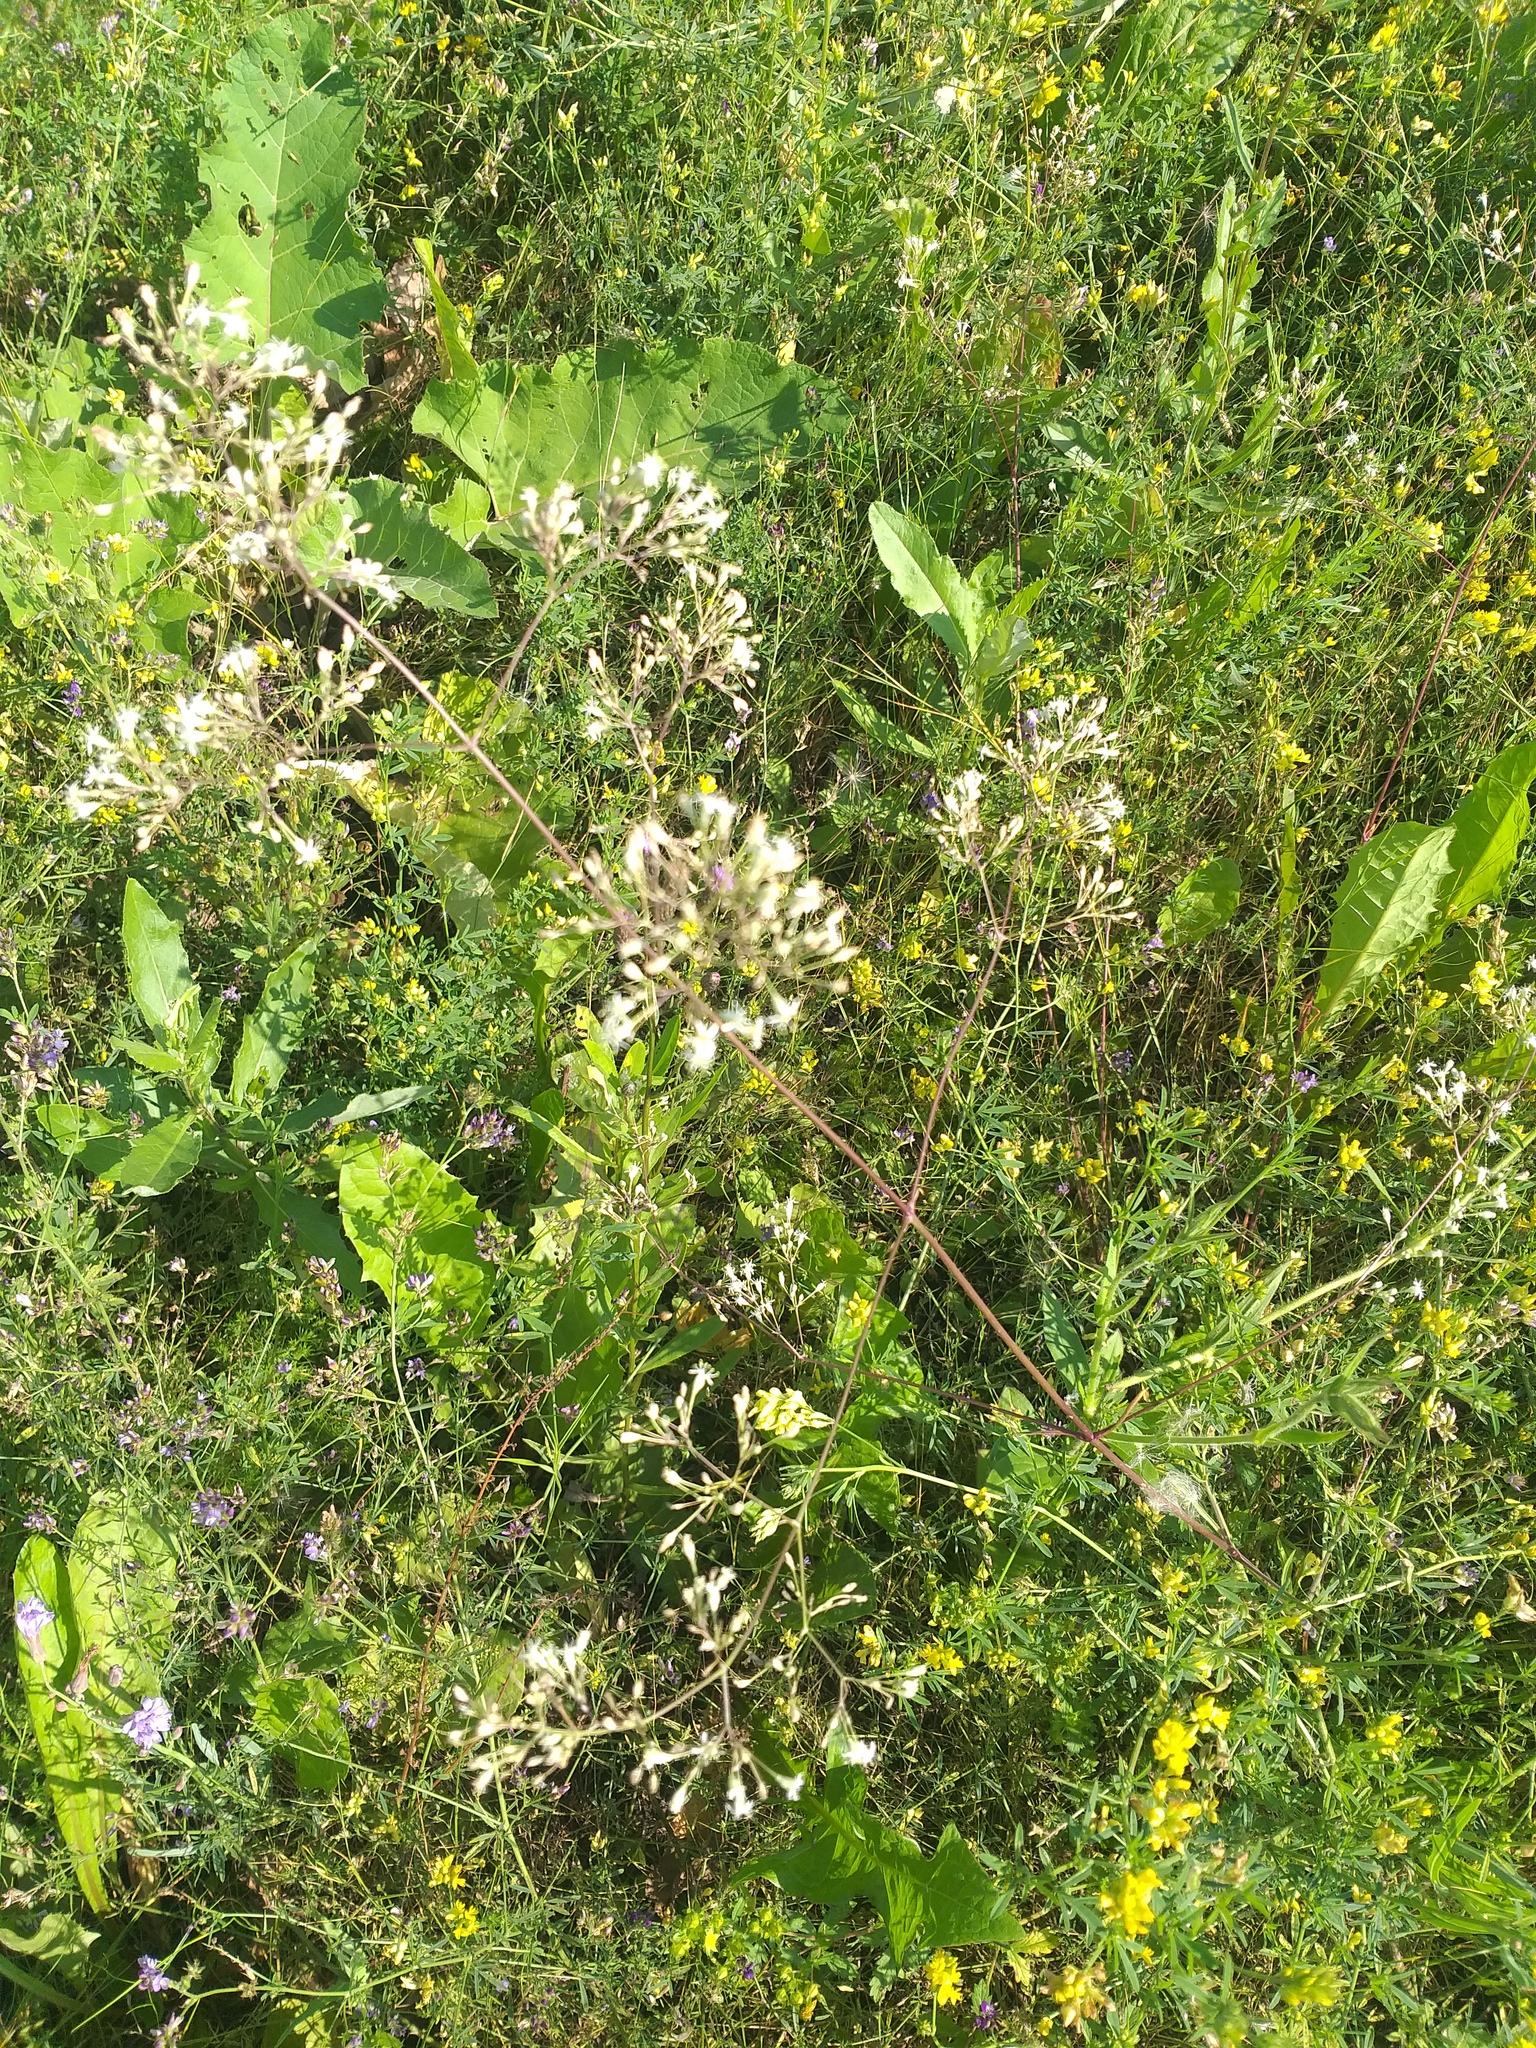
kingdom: Plantae
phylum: Tracheophyta
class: Magnoliopsida
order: Caryophyllales
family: Caryophyllaceae
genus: Silene
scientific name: Silene wolgensis
